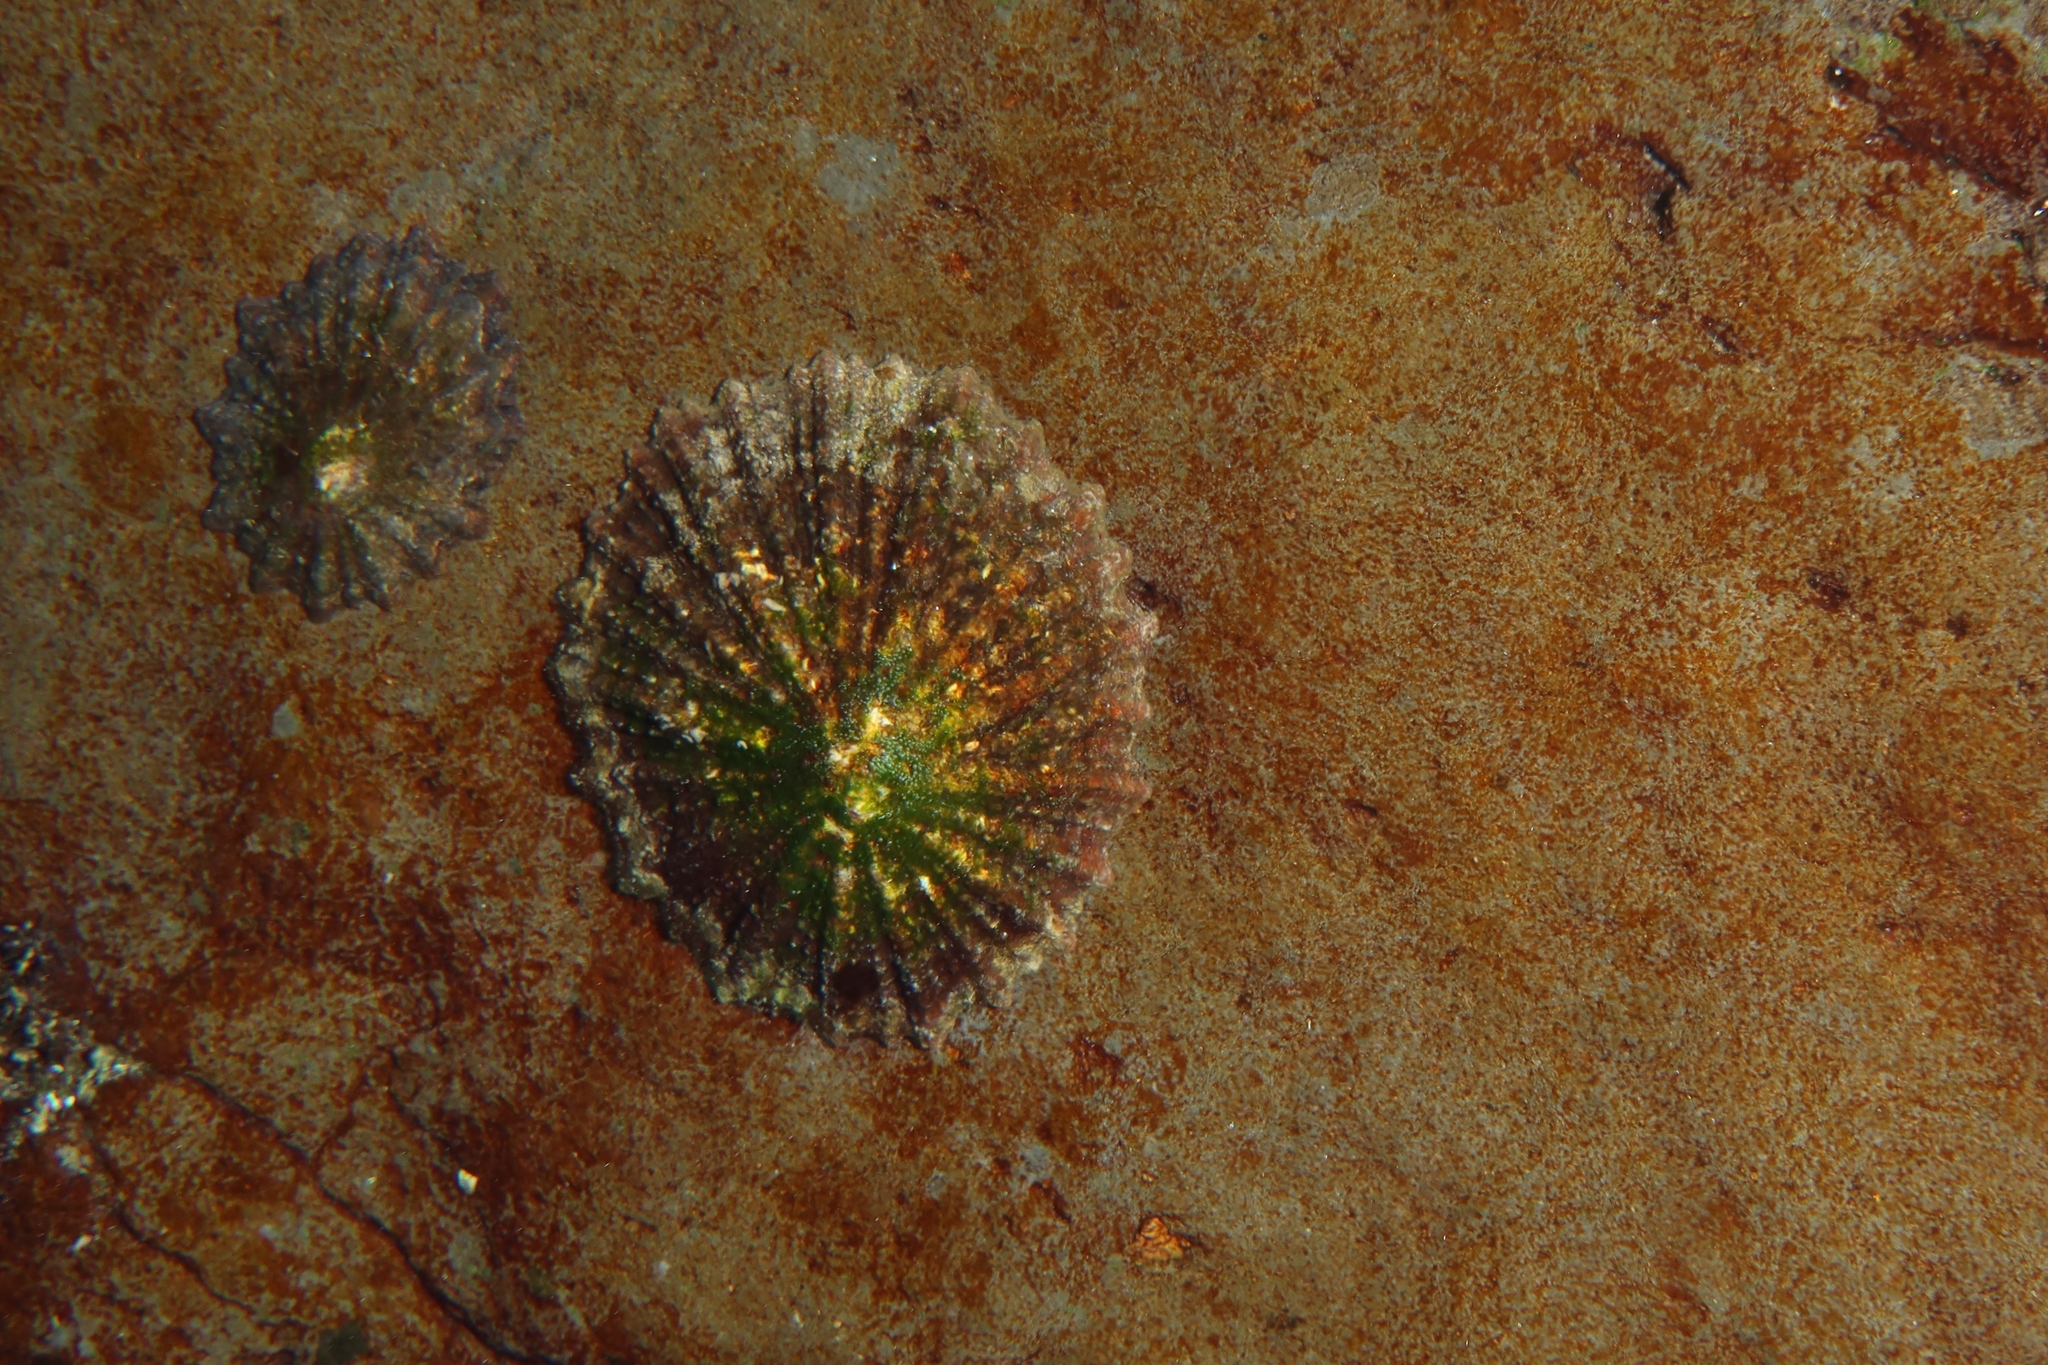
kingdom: Animalia
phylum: Mollusca
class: Gastropoda
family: Patellidae
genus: Patella
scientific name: Patella aspera
